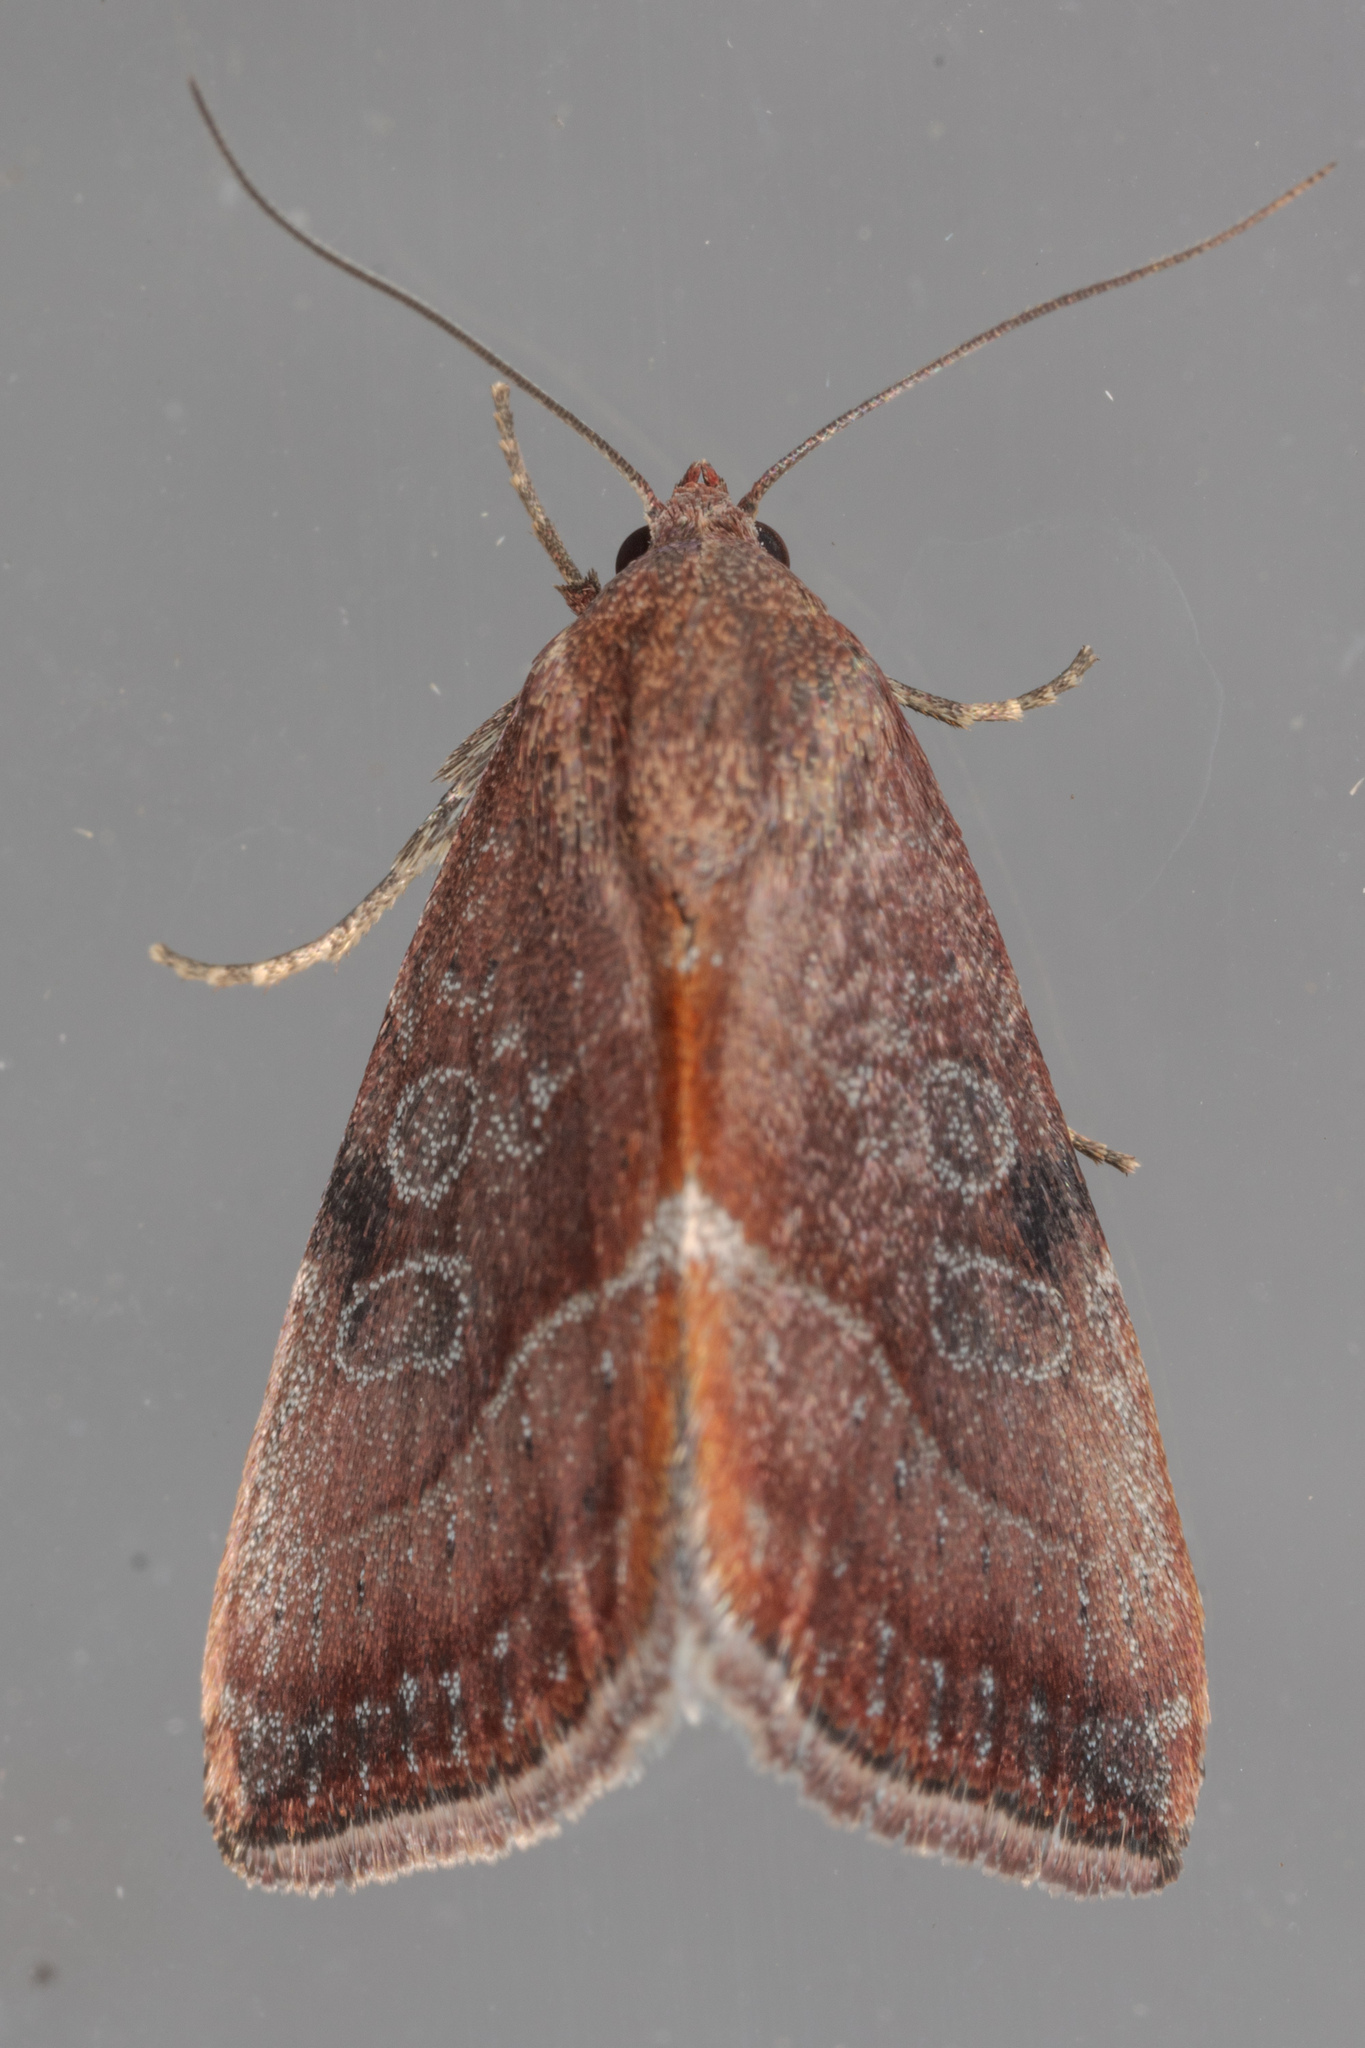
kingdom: Animalia
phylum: Arthropoda
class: Insecta
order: Lepidoptera
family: Noctuidae
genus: Galgula
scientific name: Galgula partita
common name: Wedgeling
